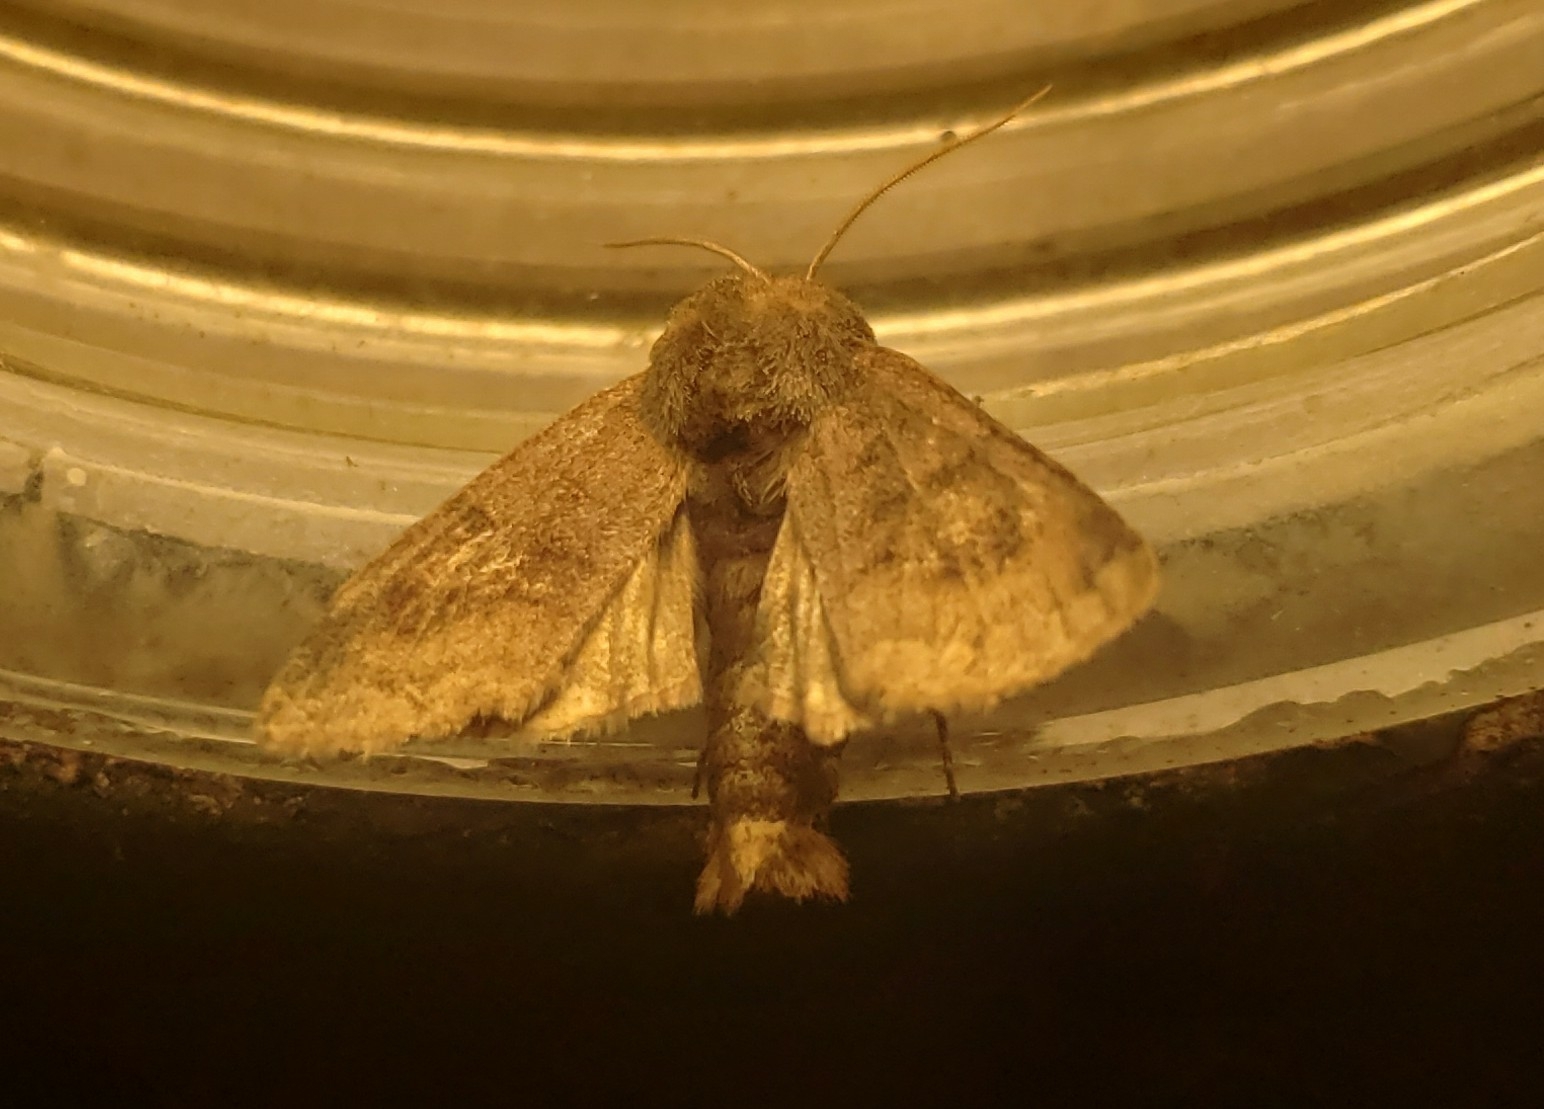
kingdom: Animalia
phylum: Arthropoda
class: Insecta
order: Lepidoptera
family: Noctuidae
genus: Nephelodes
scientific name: Nephelodes minians
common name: Bronzed cutworm
